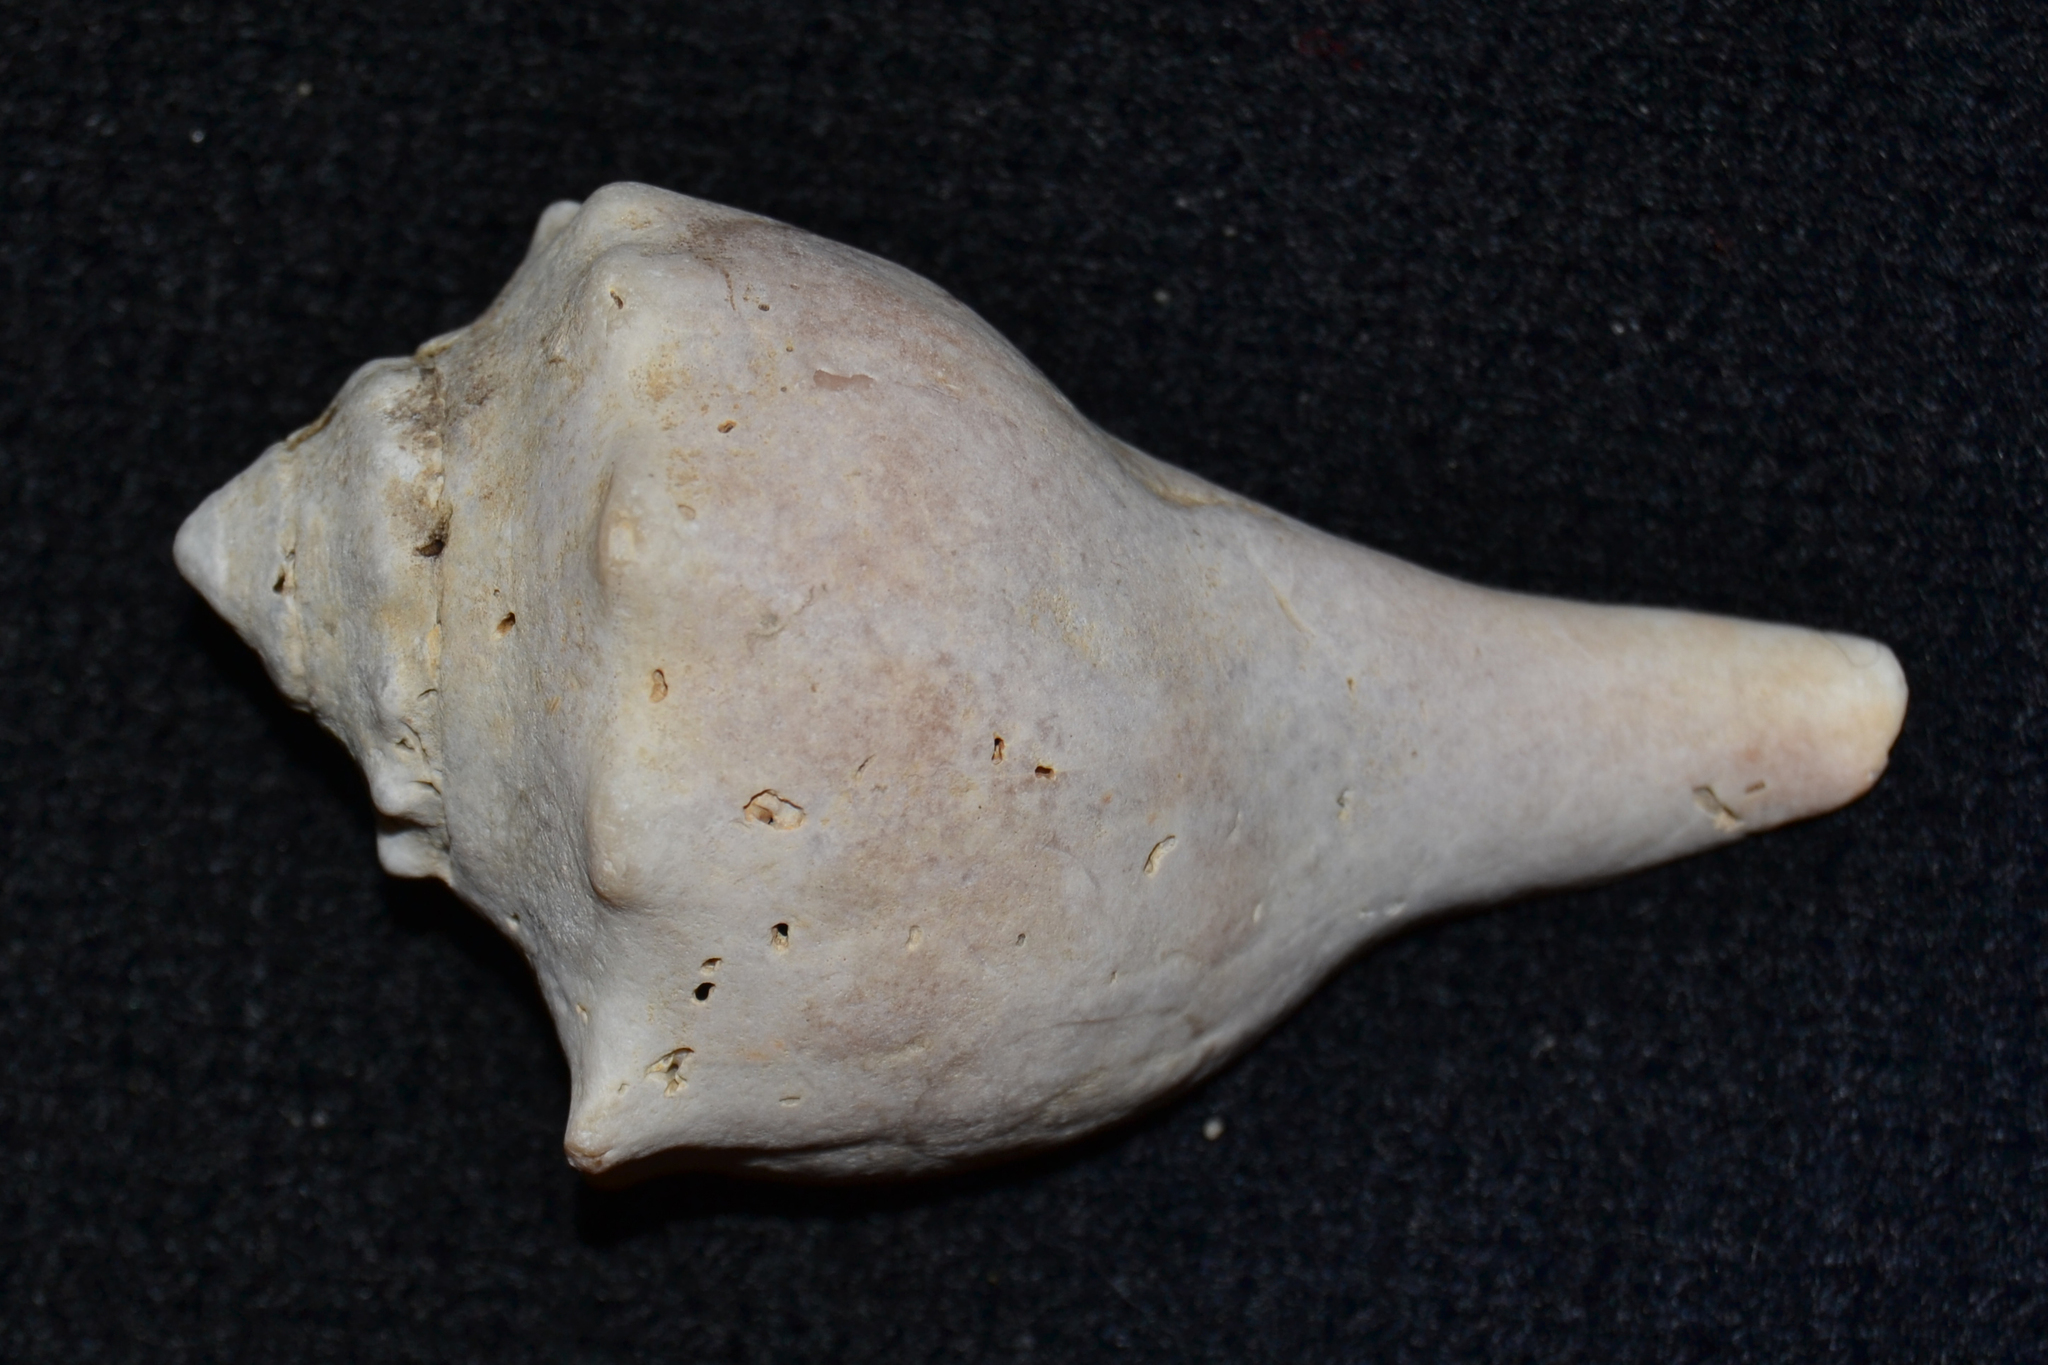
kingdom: Animalia
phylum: Mollusca
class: Gastropoda
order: Neogastropoda
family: Busyconidae
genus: Busycon
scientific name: Busycon carica
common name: Knobbed whelk
